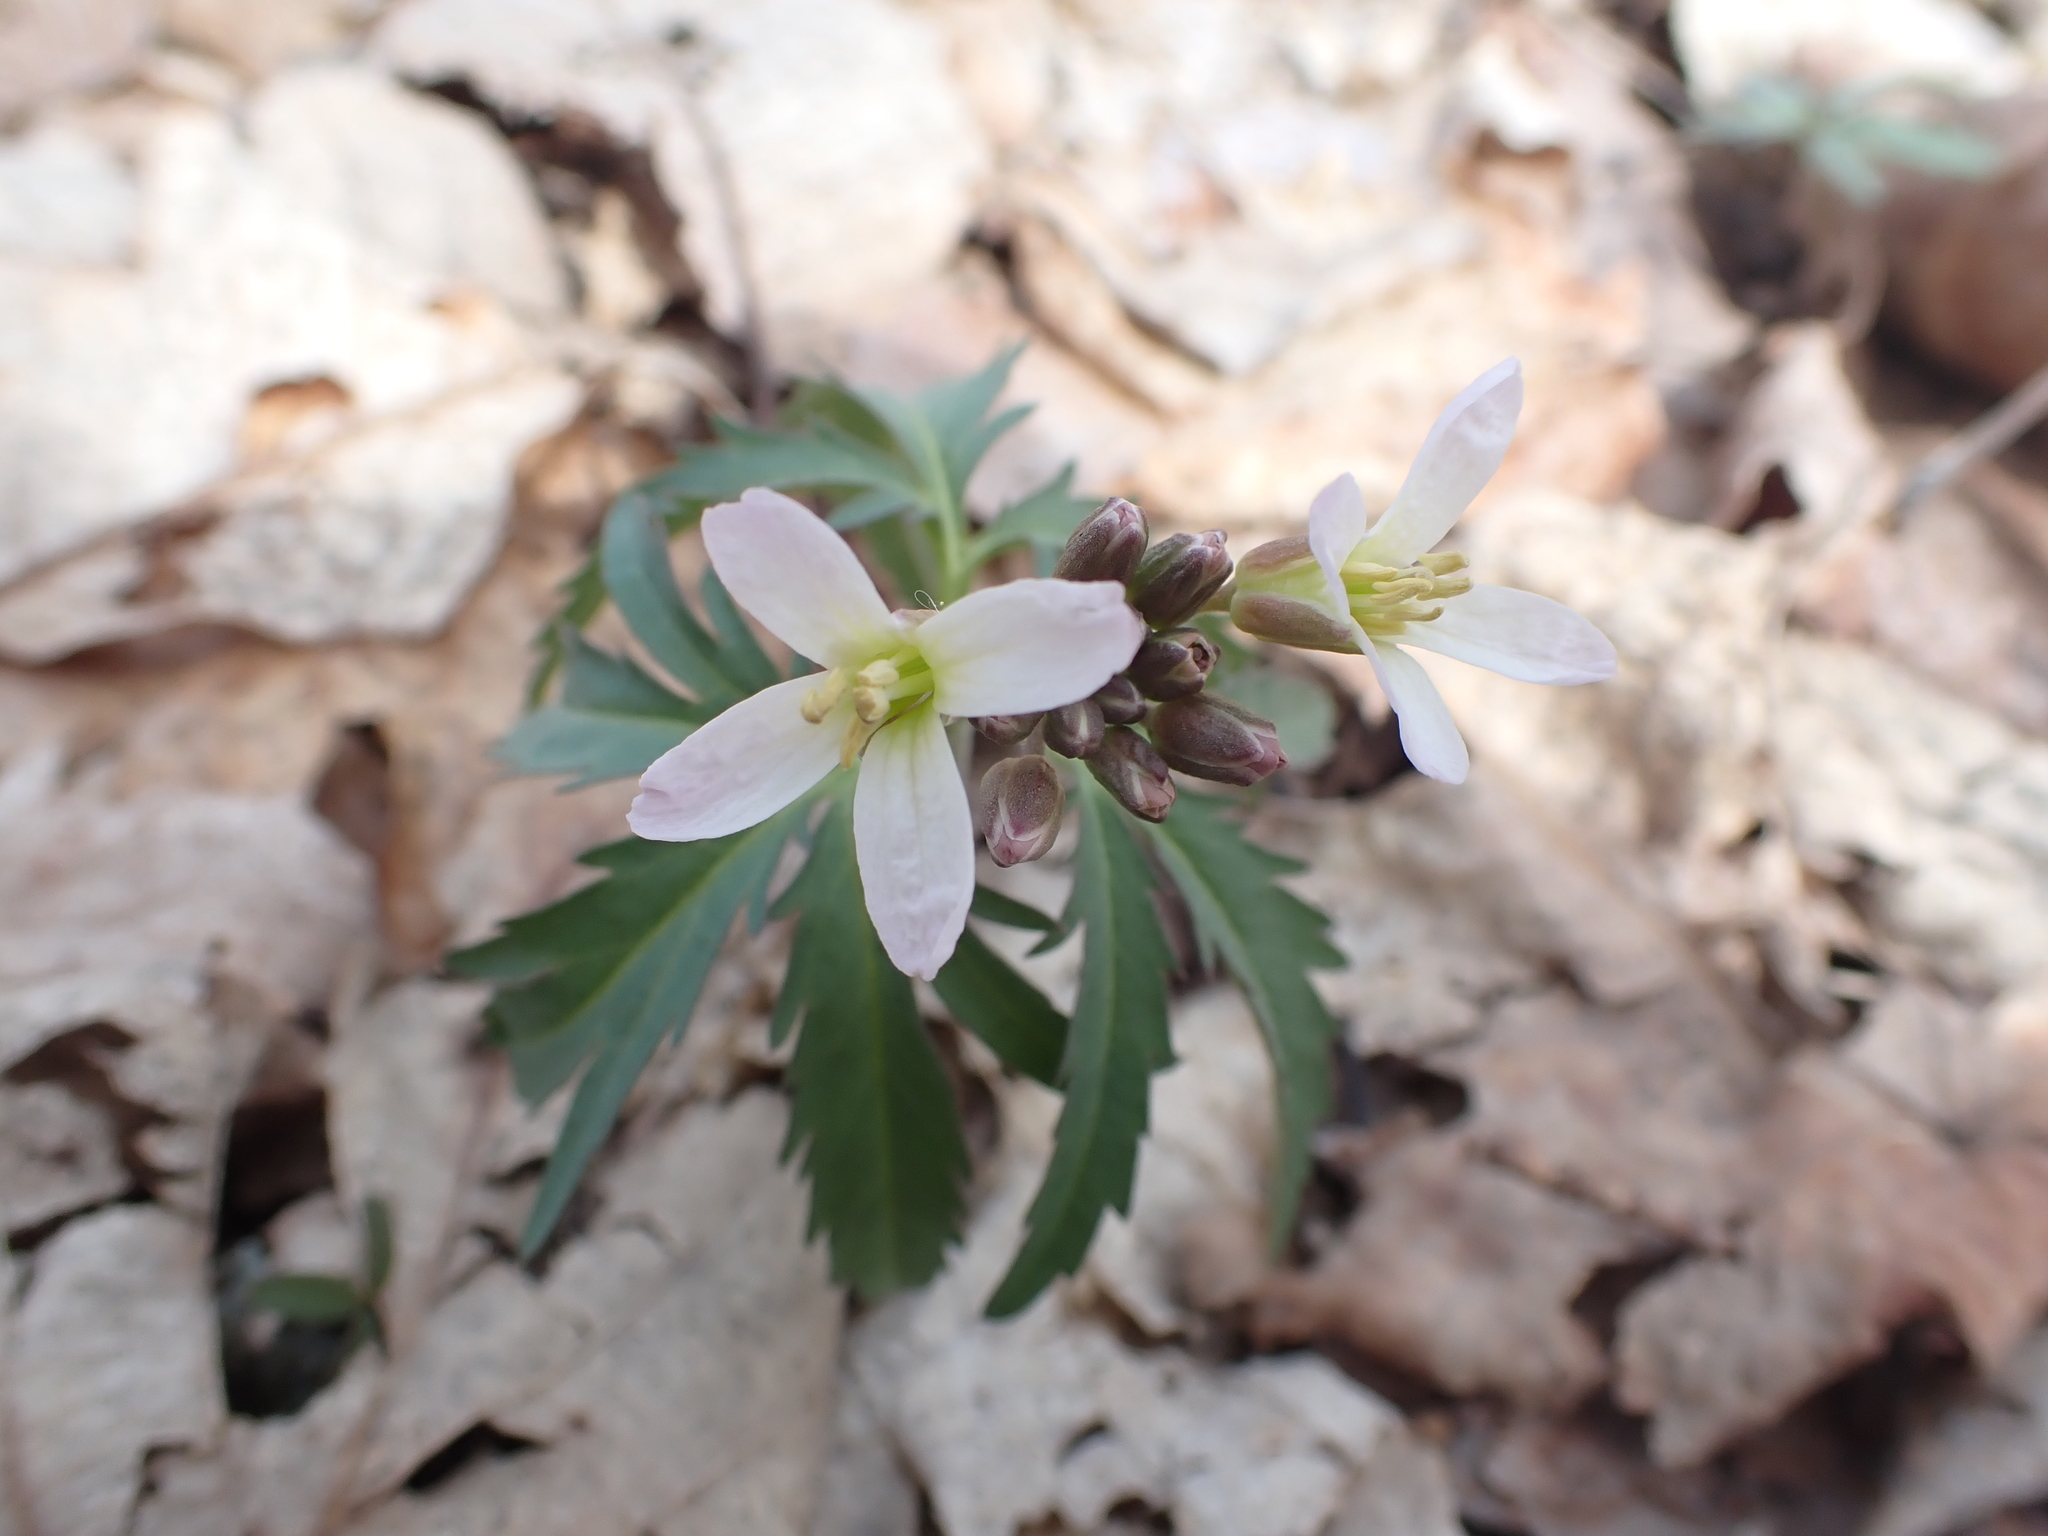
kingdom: Plantae
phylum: Tracheophyta
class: Magnoliopsida
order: Brassicales
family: Brassicaceae
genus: Cardamine
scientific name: Cardamine concatenata
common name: Cut-leaf toothcup
